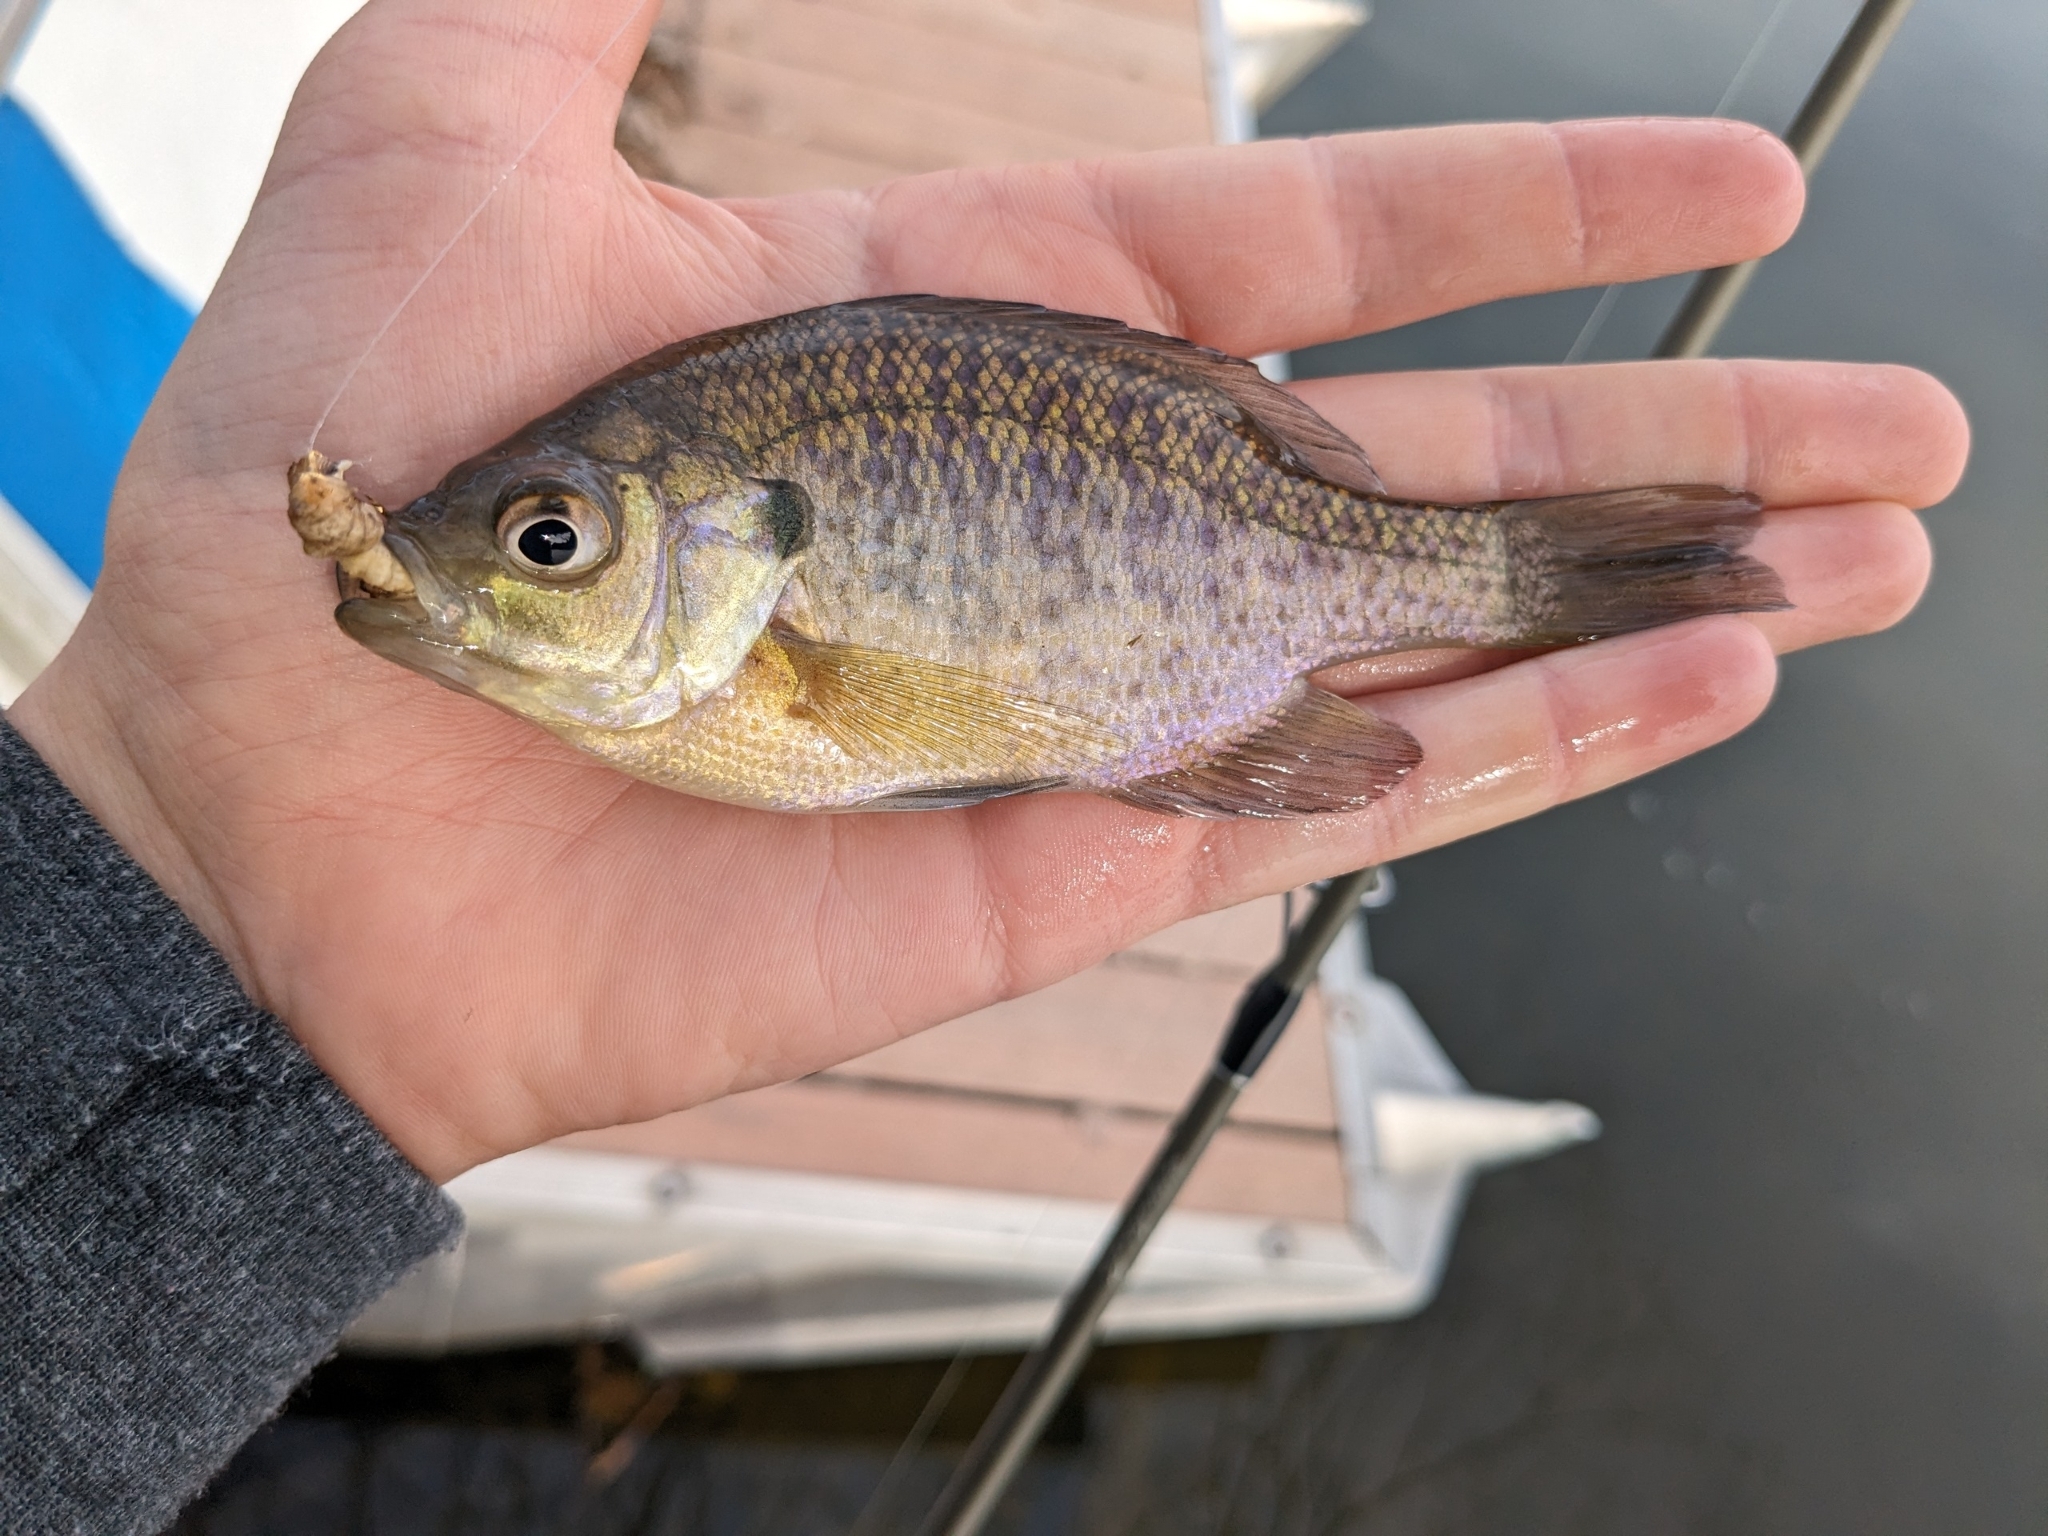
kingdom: Animalia
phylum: Chordata
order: Perciformes
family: Centrarchidae
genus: Lepomis
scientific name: Lepomis macrochirus
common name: Bluegill
